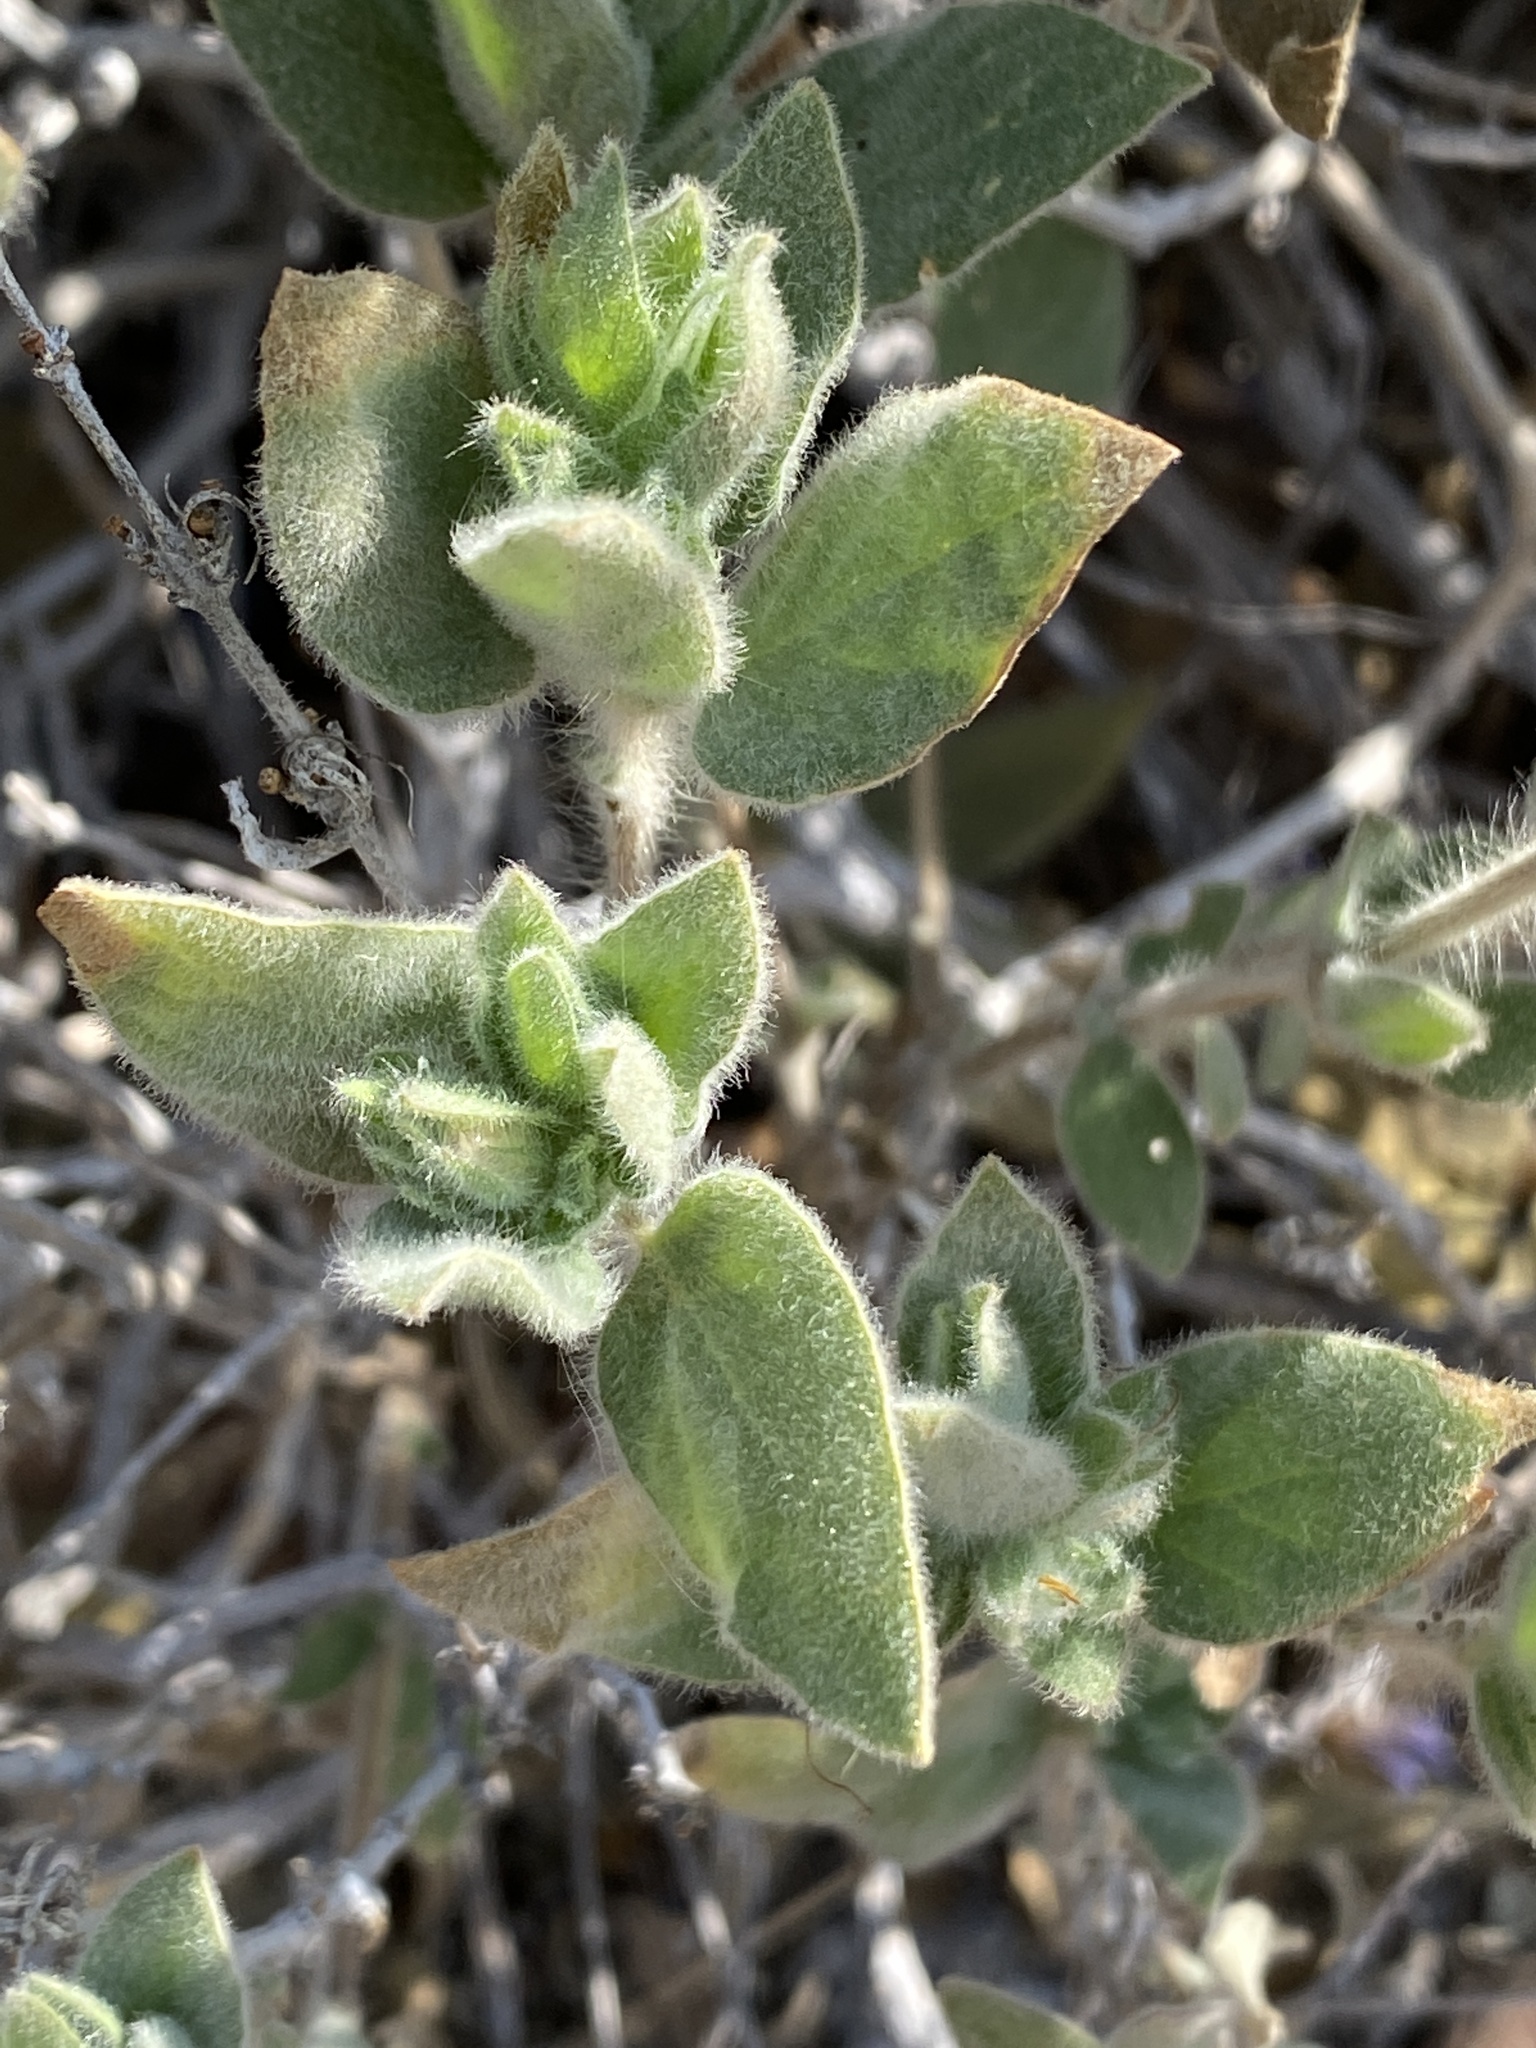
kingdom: Plantae
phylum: Tracheophyta
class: Magnoliopsida
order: Lamiales
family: Acanthaceae
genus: Dinteracanthus
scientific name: Dinteracanthus kaokoanus
